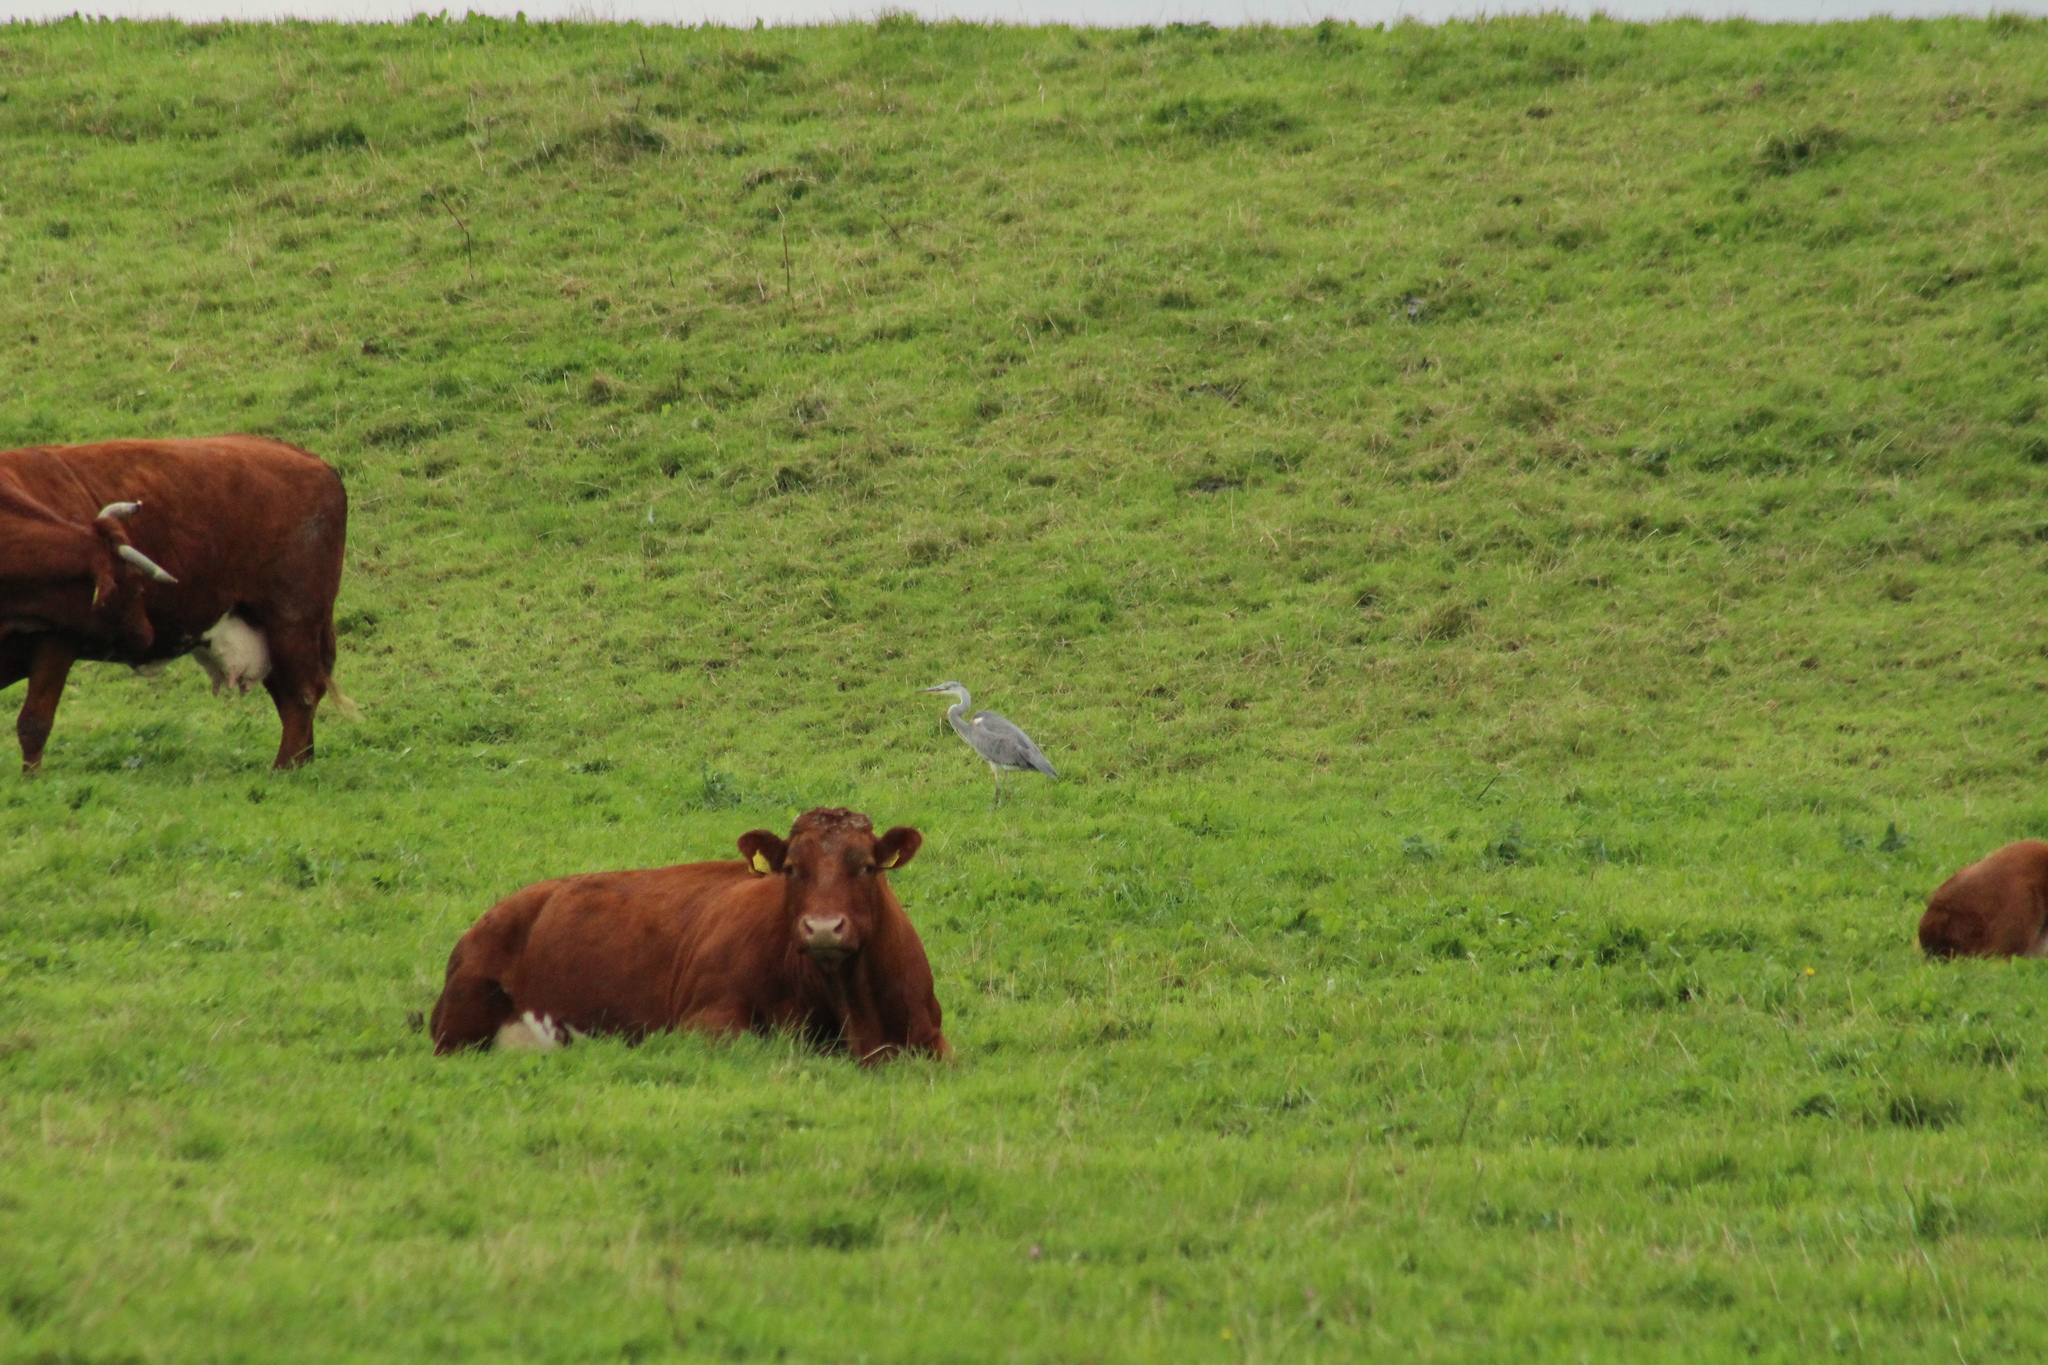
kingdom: Animalia
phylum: Chordata
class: Aves
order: Pelecaniformes
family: Ardeidae
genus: Ardea
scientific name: Ardea cinerea
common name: Grey heron
